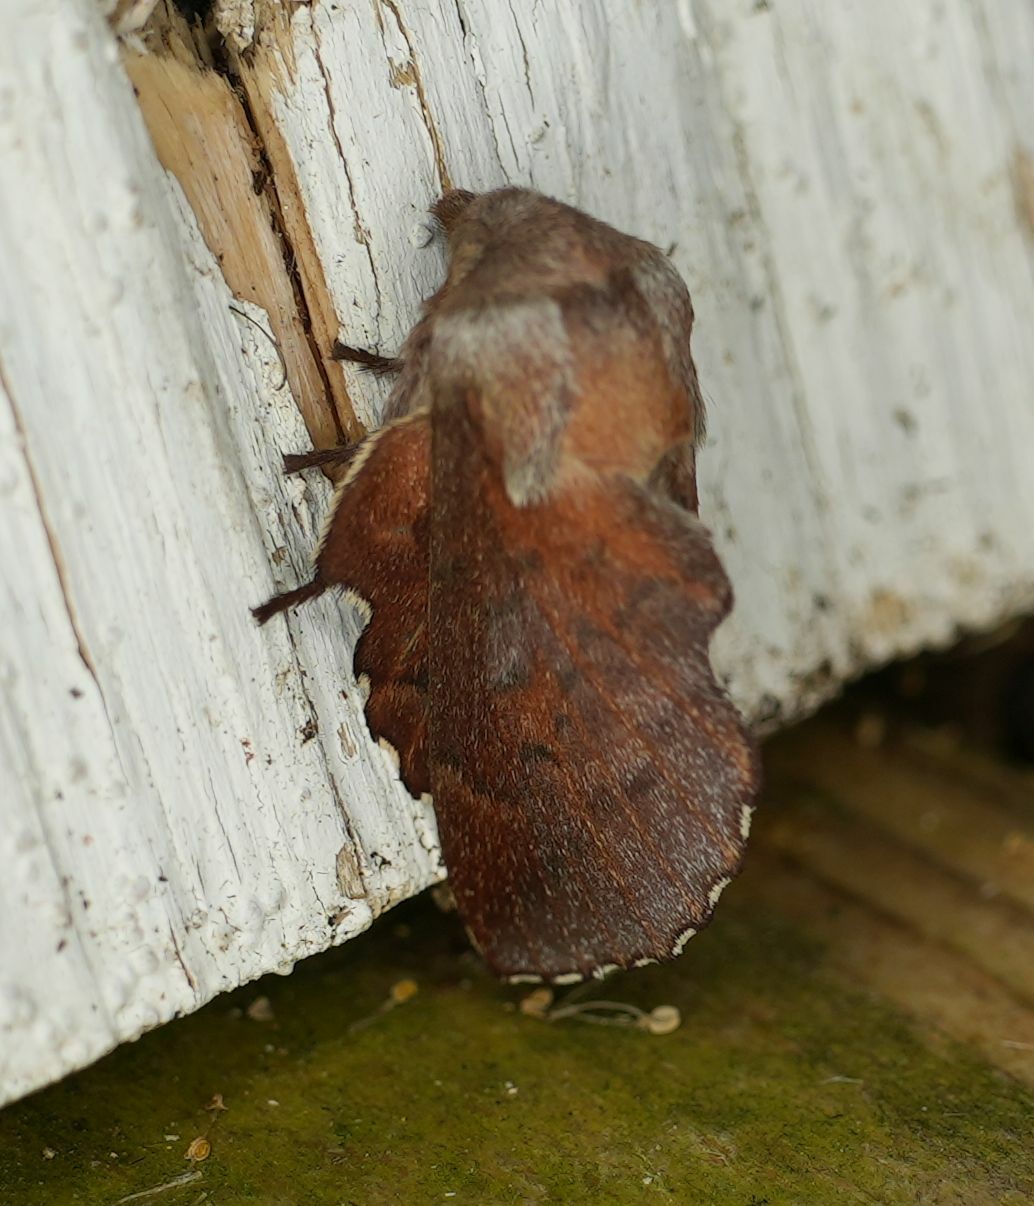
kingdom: Animalia
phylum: Arthropoda
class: Insecta
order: Lepidoptera
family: Lasiocampidae
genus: Phyllodesma
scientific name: Phyllodesma americana
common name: American lappet moth
